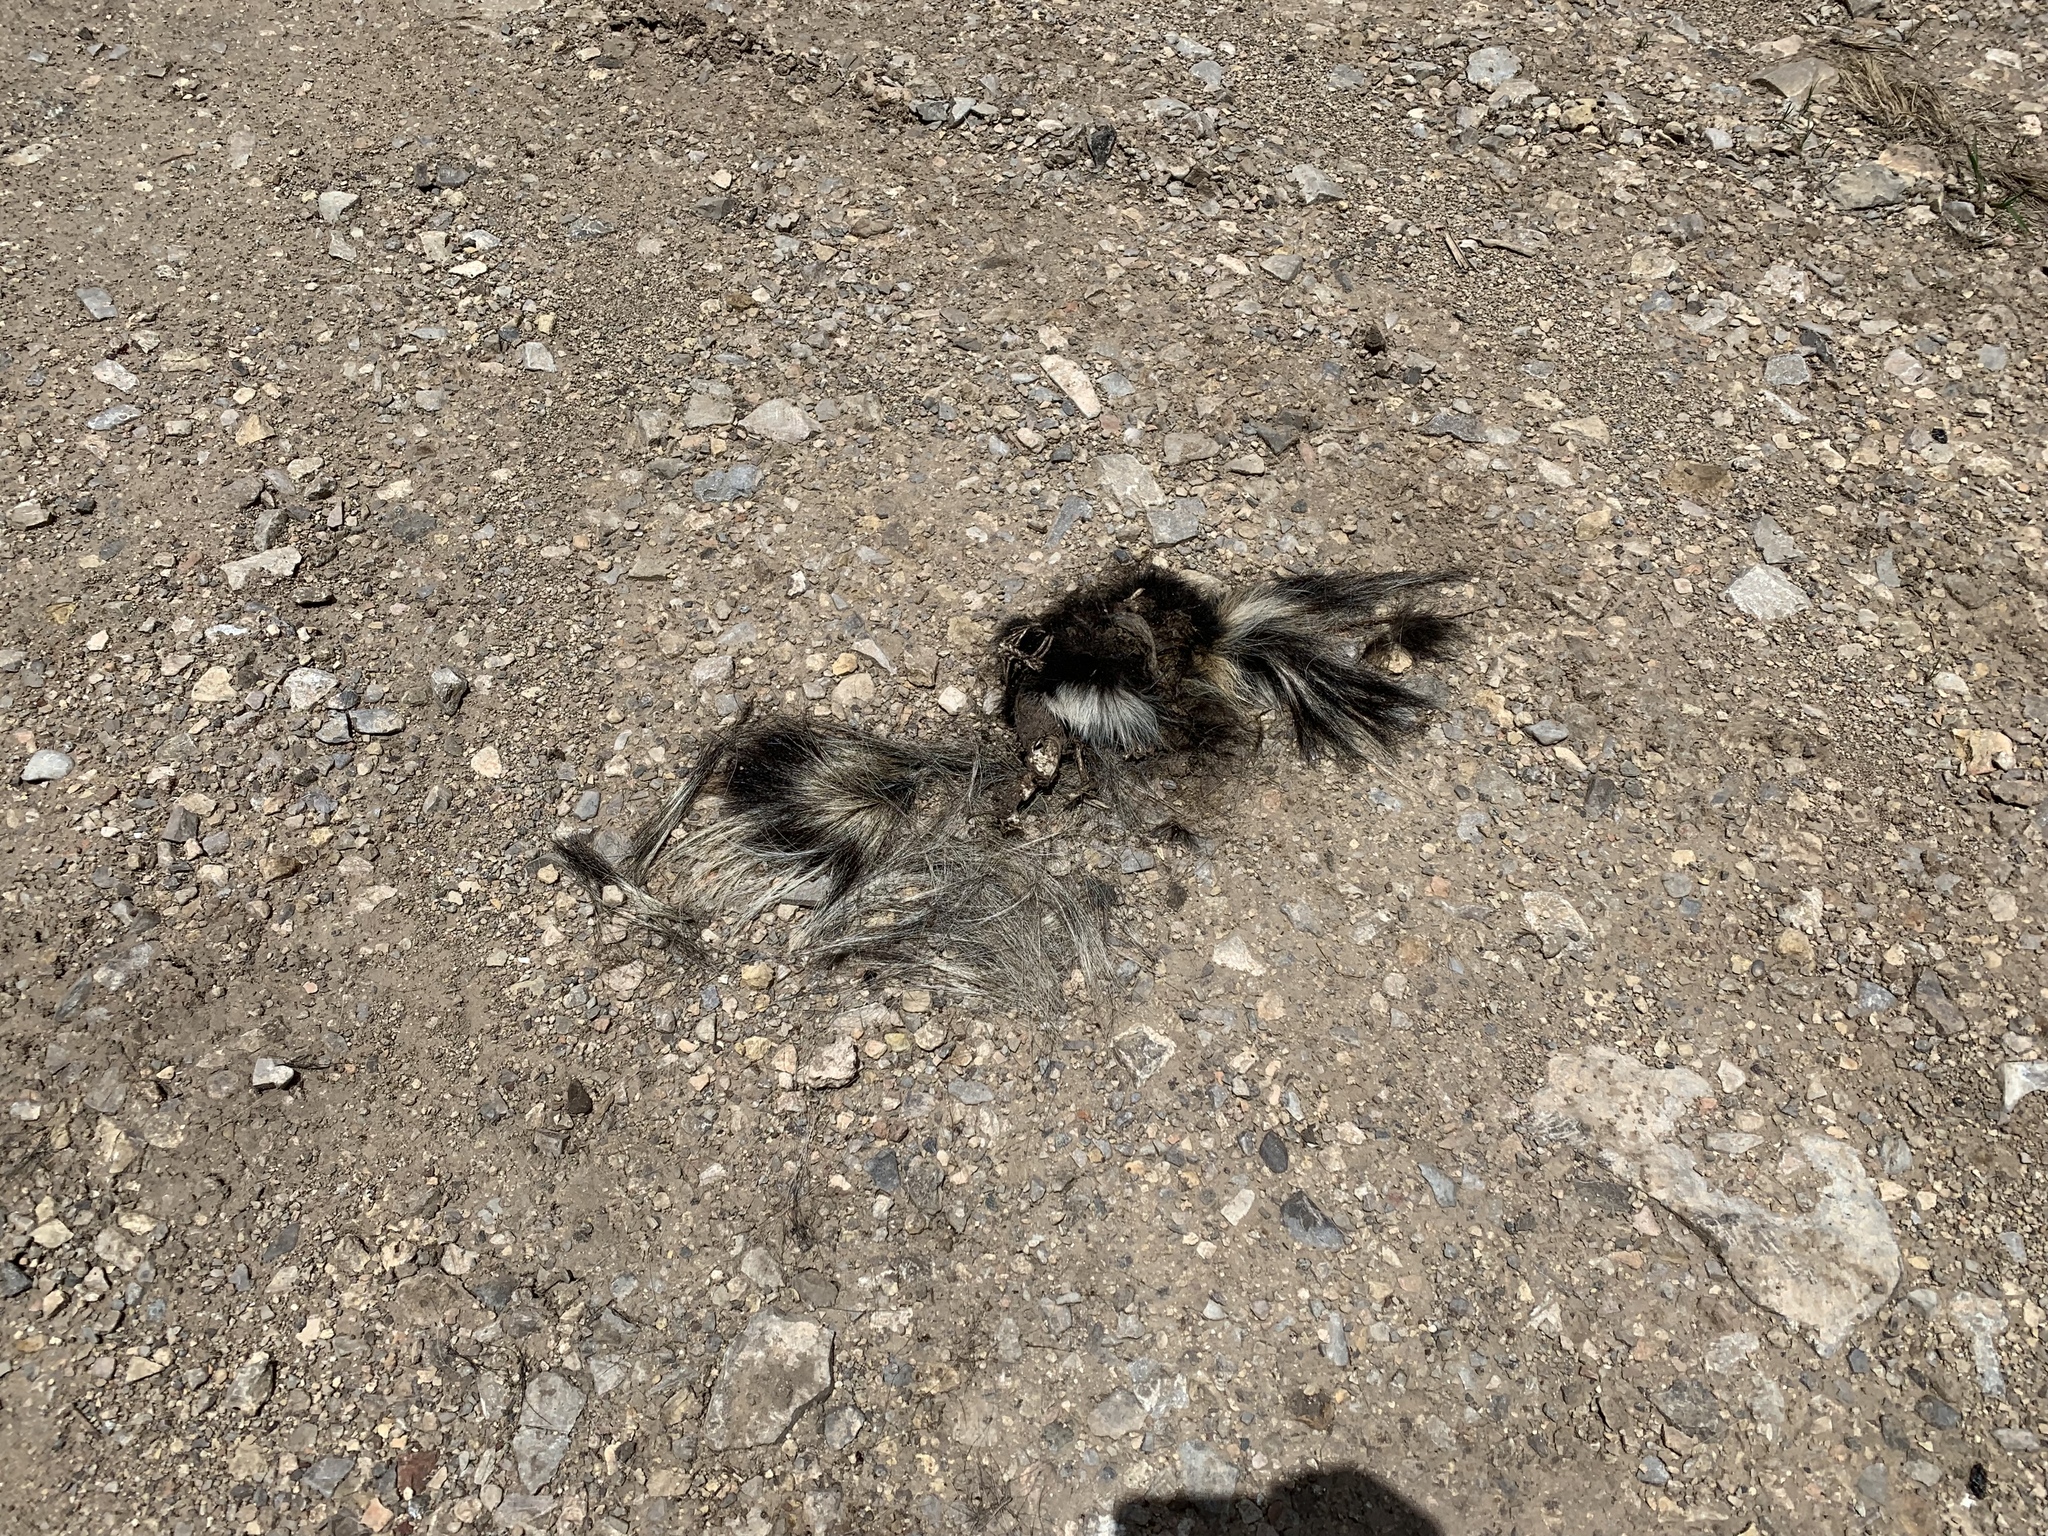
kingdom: Animalia
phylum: Chordata
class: Mammalia
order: Carnivora
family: Mephitidae
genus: Mephitis
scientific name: Mephitis mephitis
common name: Striped skunk
